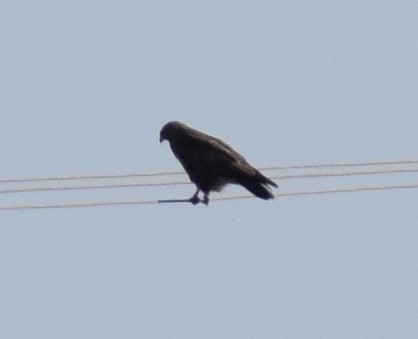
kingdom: Animalia
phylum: Chordata
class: Aves
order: Accipitriformes
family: Accipitridae
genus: Buteo
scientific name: Buteo buteo
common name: Common buzzard
